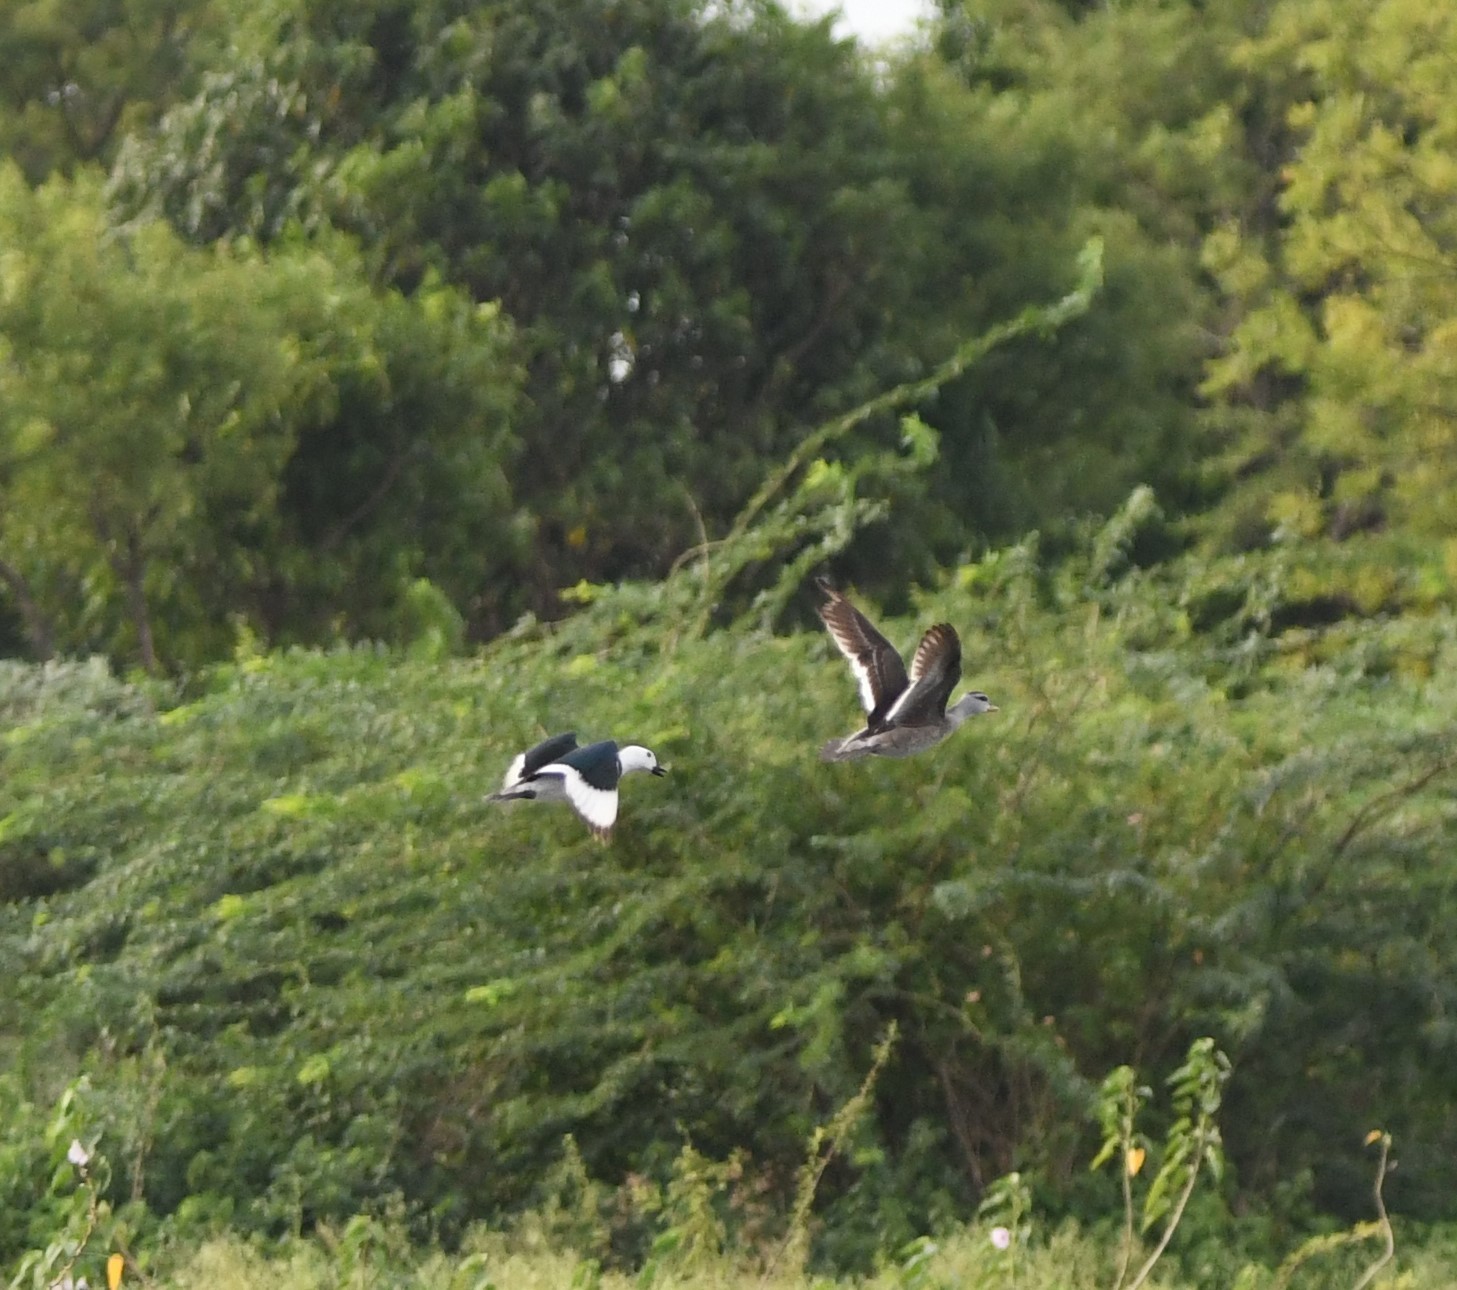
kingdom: Animalia
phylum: Chordata
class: Aves
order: Anseriformes
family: Anatidae
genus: Nettapus
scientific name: Nettapus coromandelianus
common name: Cotton pygmy-goose
